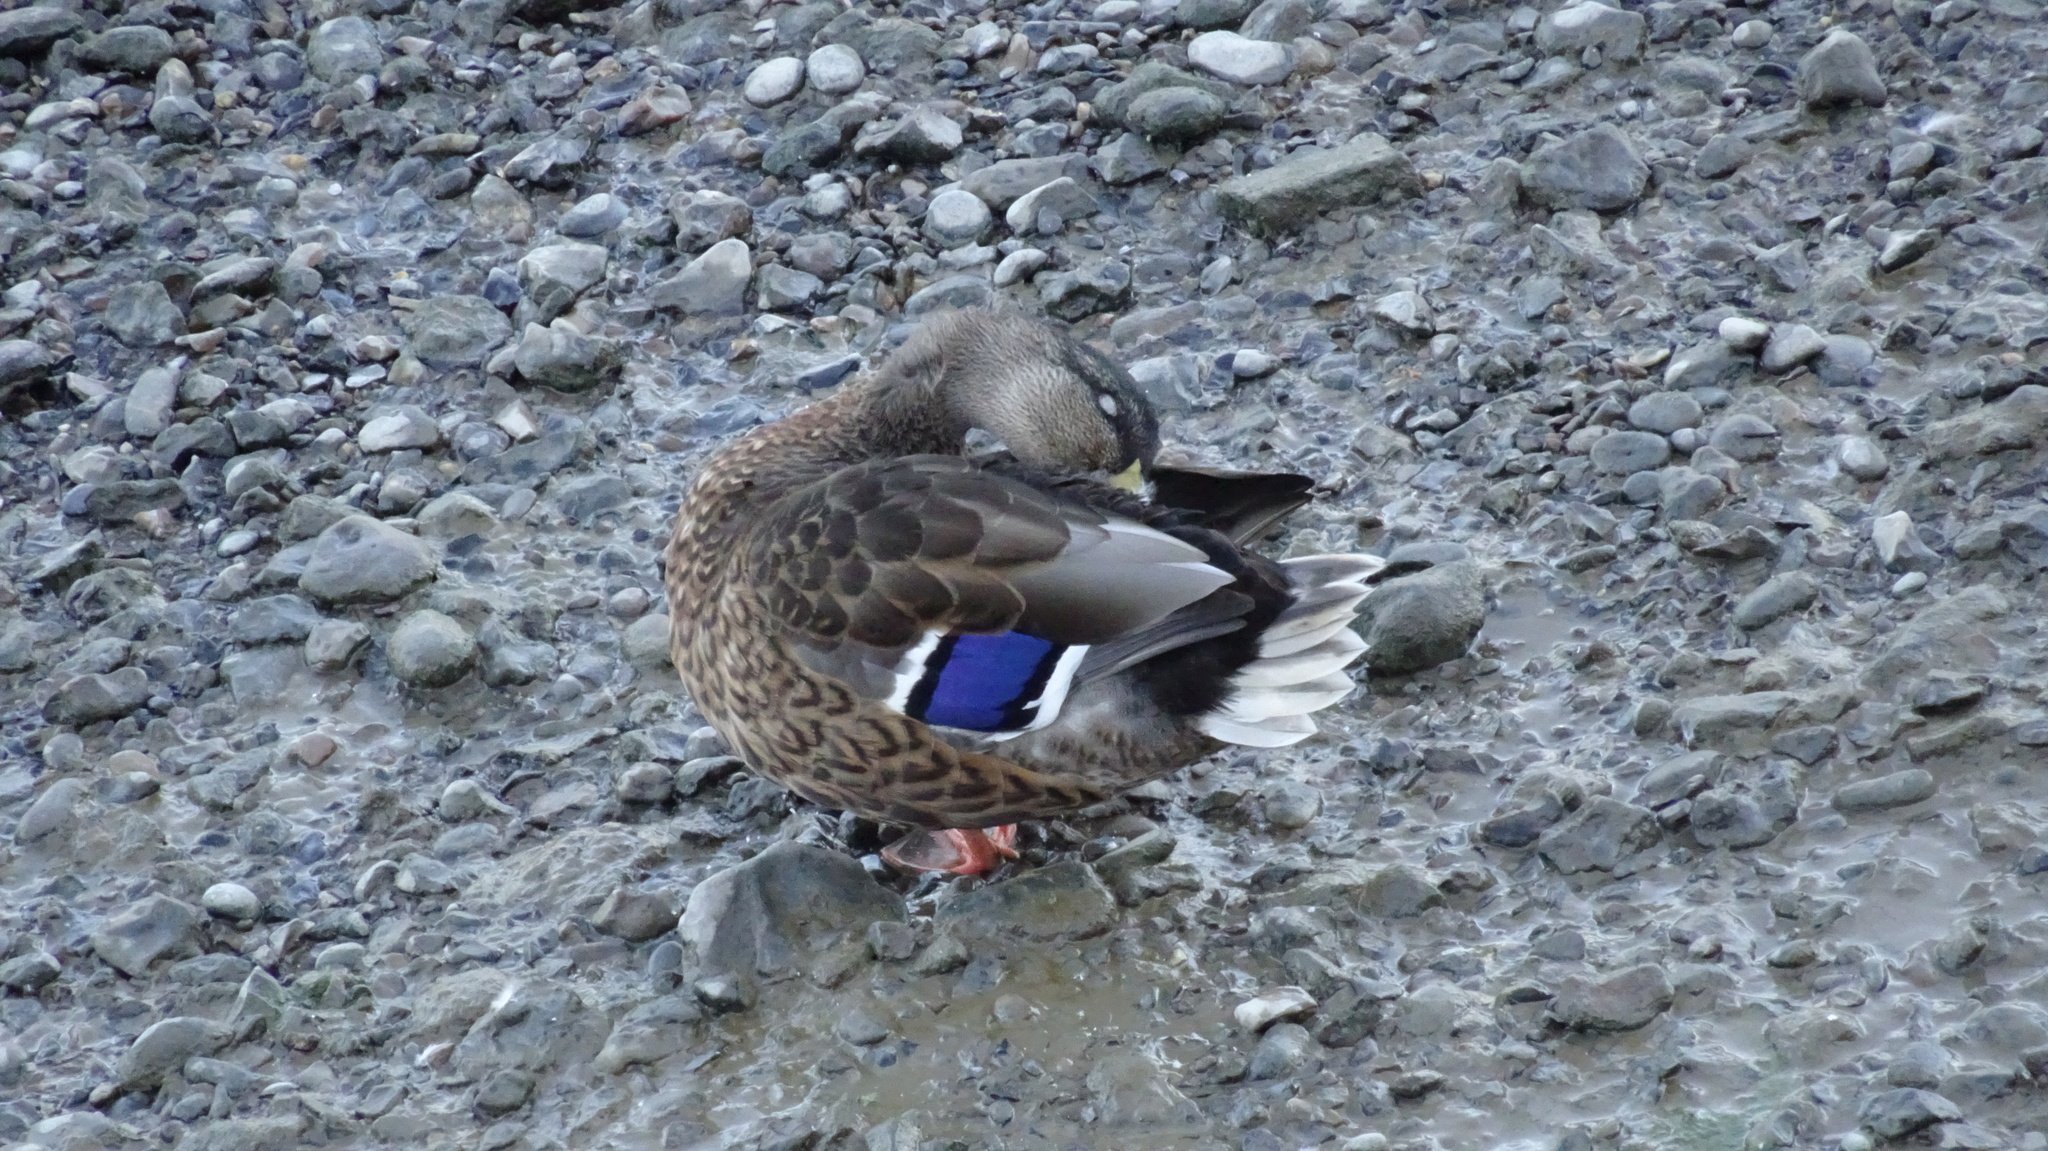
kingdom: Animalia
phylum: Chordata
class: Aves
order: Anseriformes
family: Anatidae
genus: Anas
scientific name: Anas platyrhynchos
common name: Mallard
